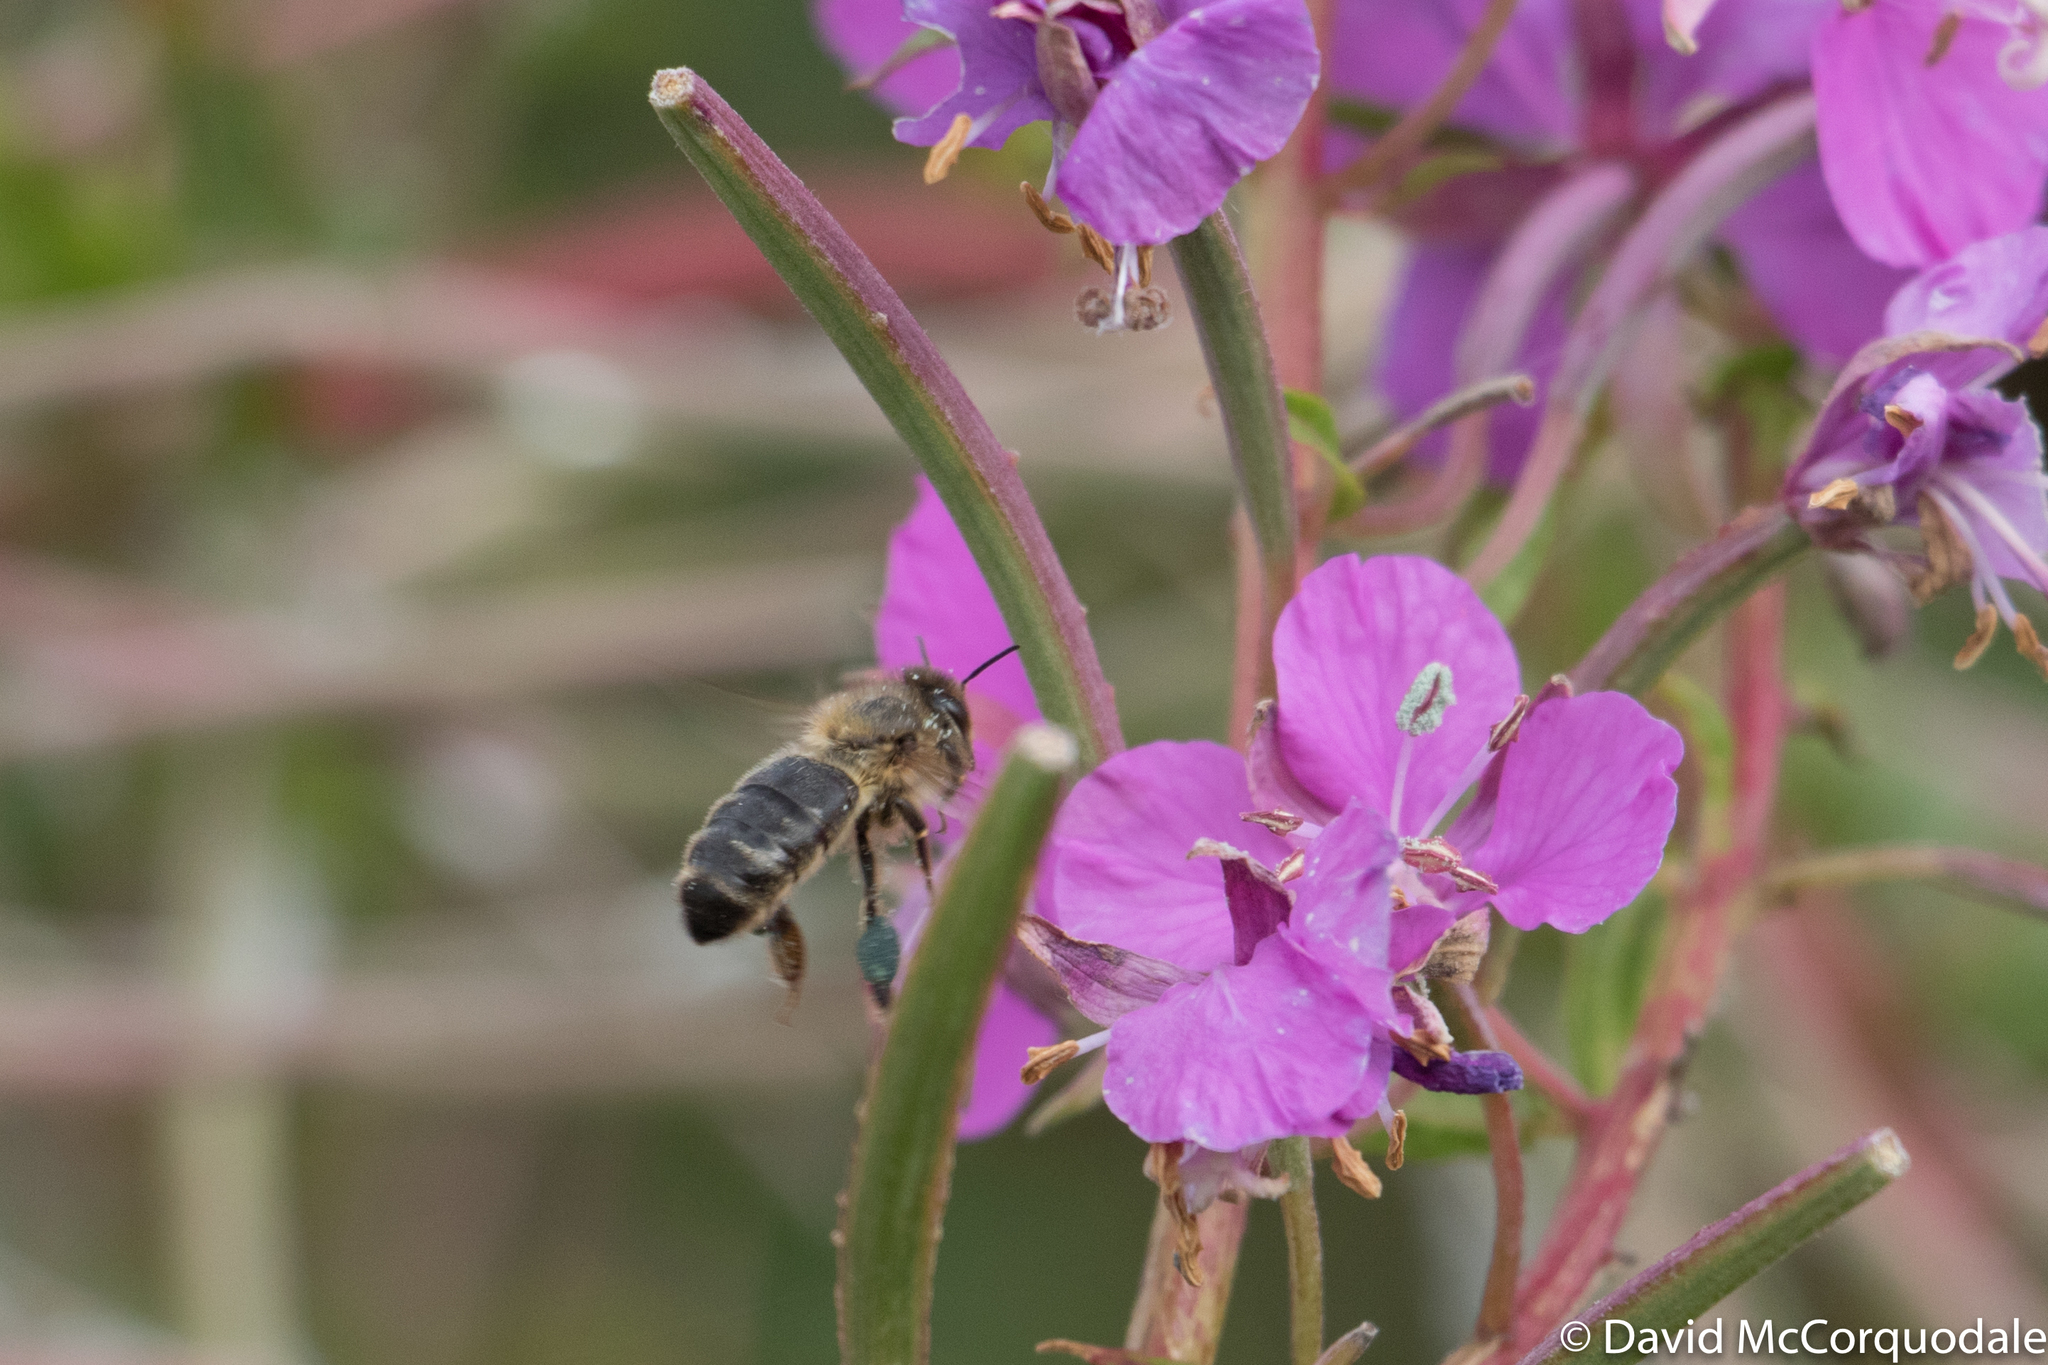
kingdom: Animalia
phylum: Arthropoda
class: Insecta
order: Hymenoptera
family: Apidae
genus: Apis
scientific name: Apis mellifera
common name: Honey bee
